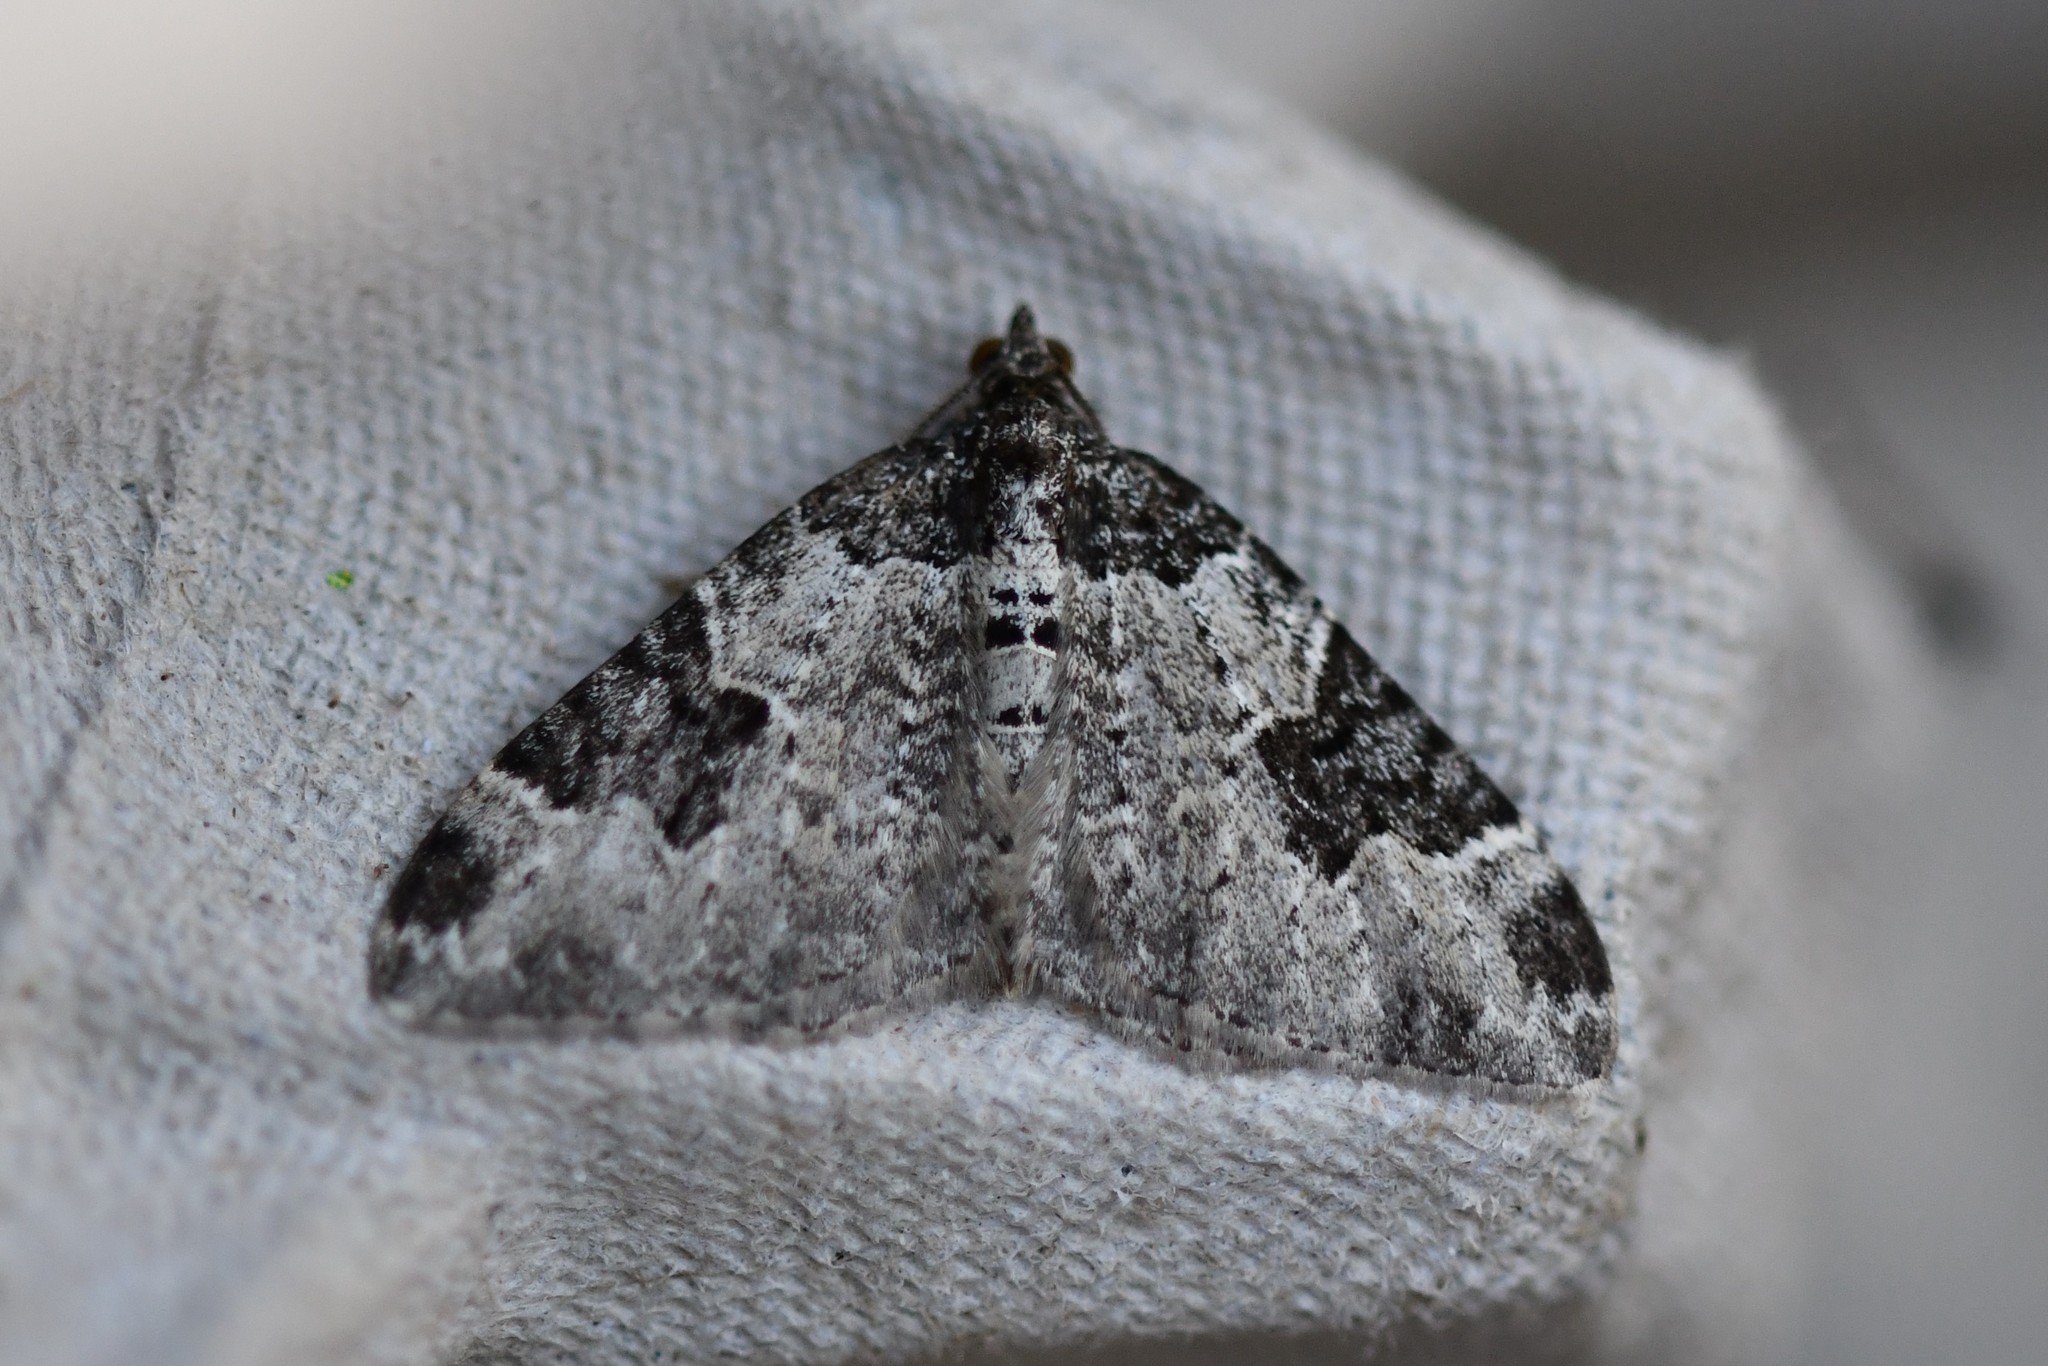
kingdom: Animalia
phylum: Arthropoda
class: Insecta
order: Lepidoptera
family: Geometridae
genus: Xanthorhoe
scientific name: Xanthorhoe fluctuata
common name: Garden carpet
